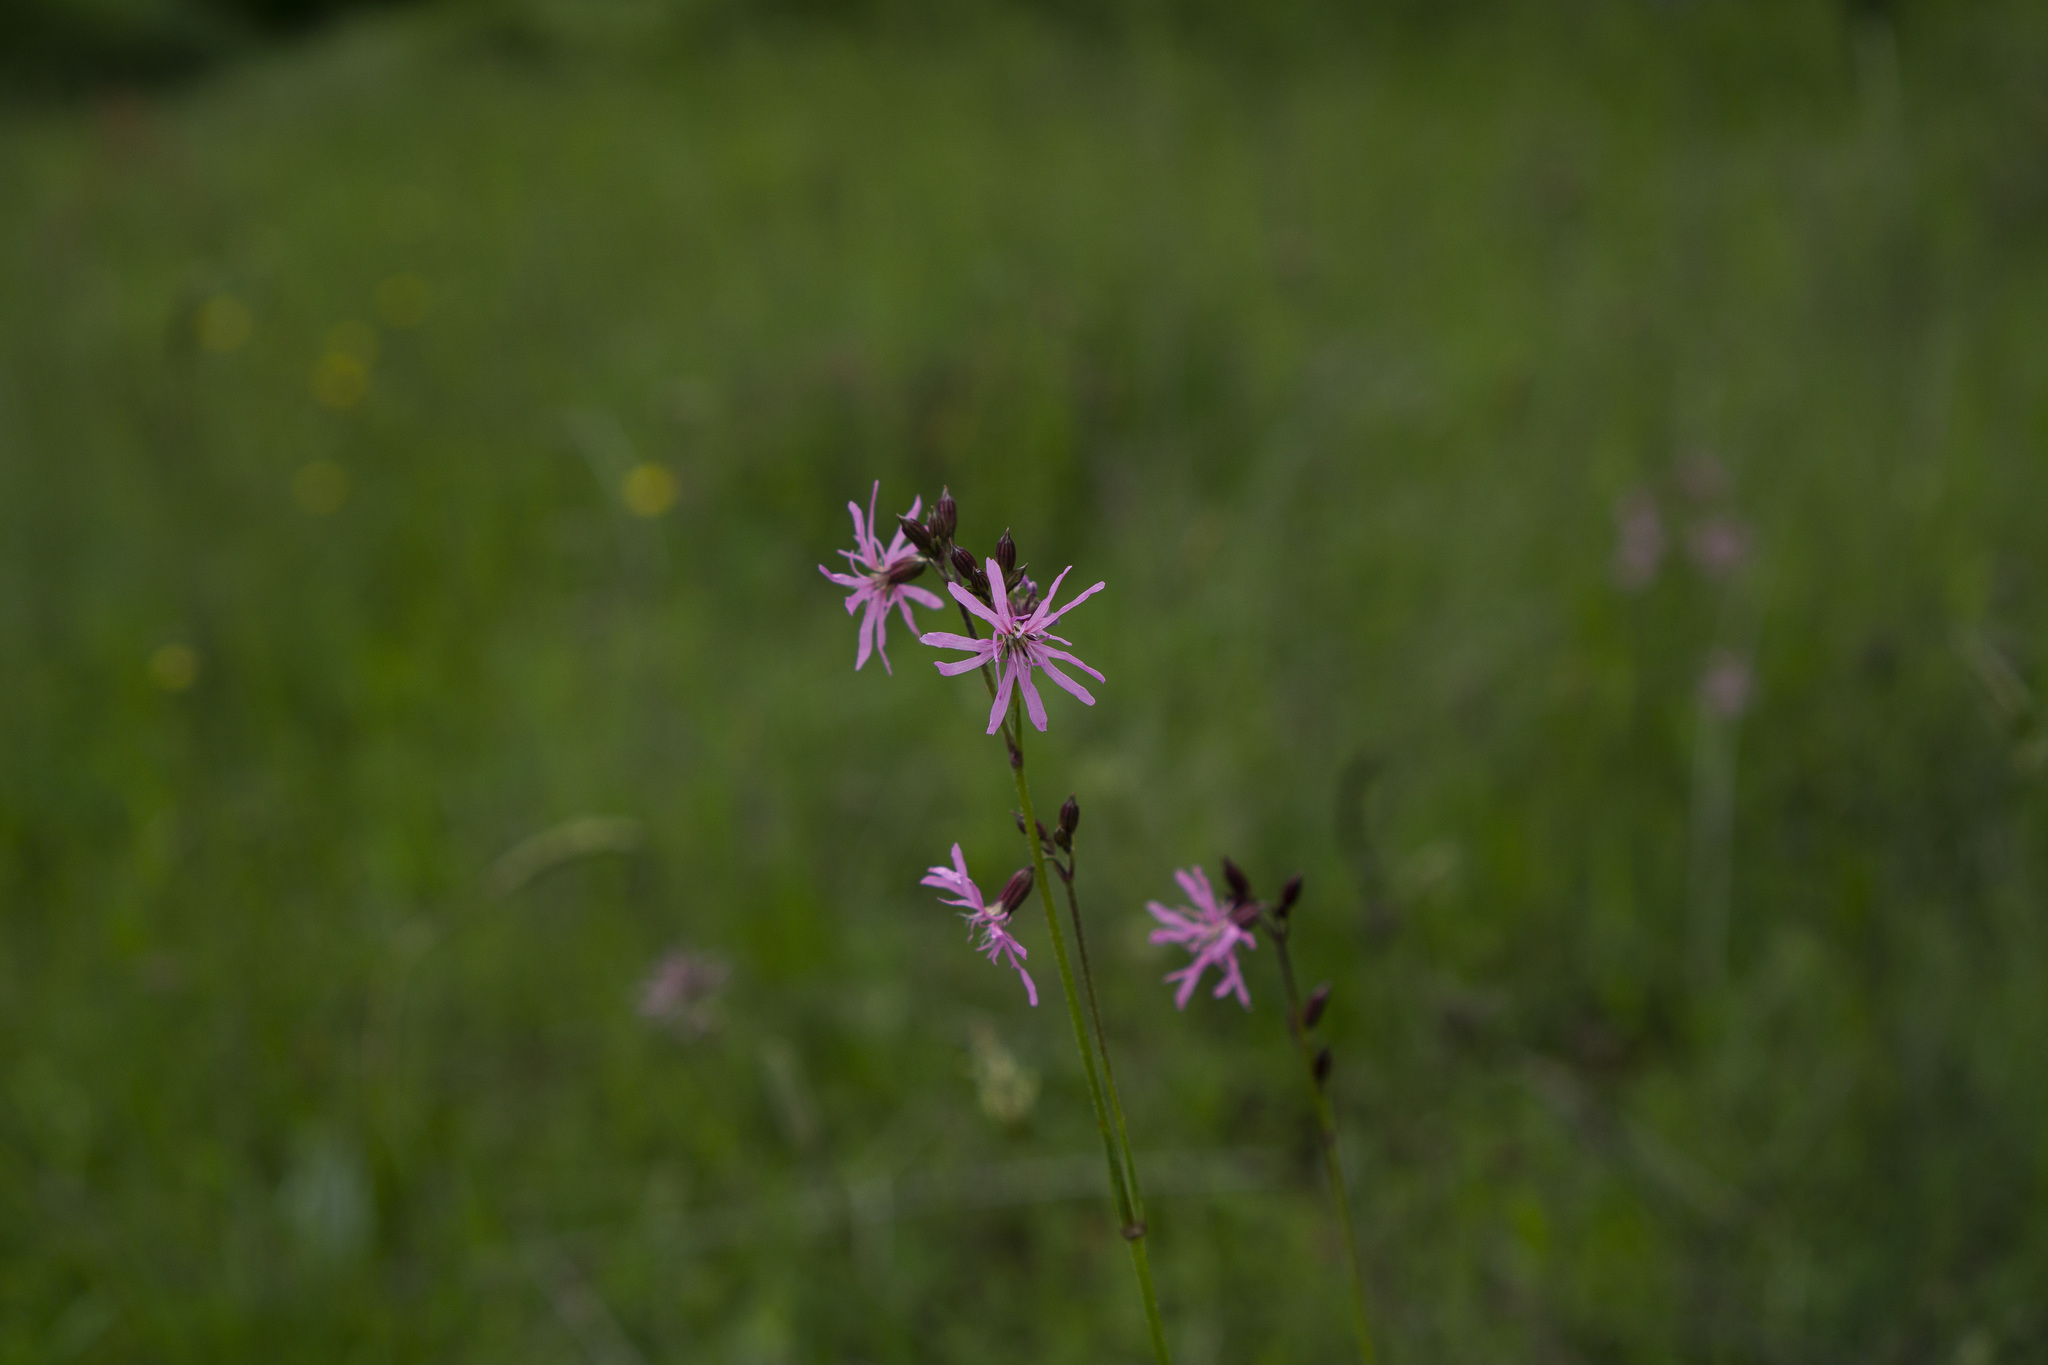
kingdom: Plantae
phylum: Tracheophyta
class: Magnoliopsida
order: Caryophyllales
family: Caryophyllaceae
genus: Silene
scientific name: Silene flos-cuculi
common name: Ragged-robin
